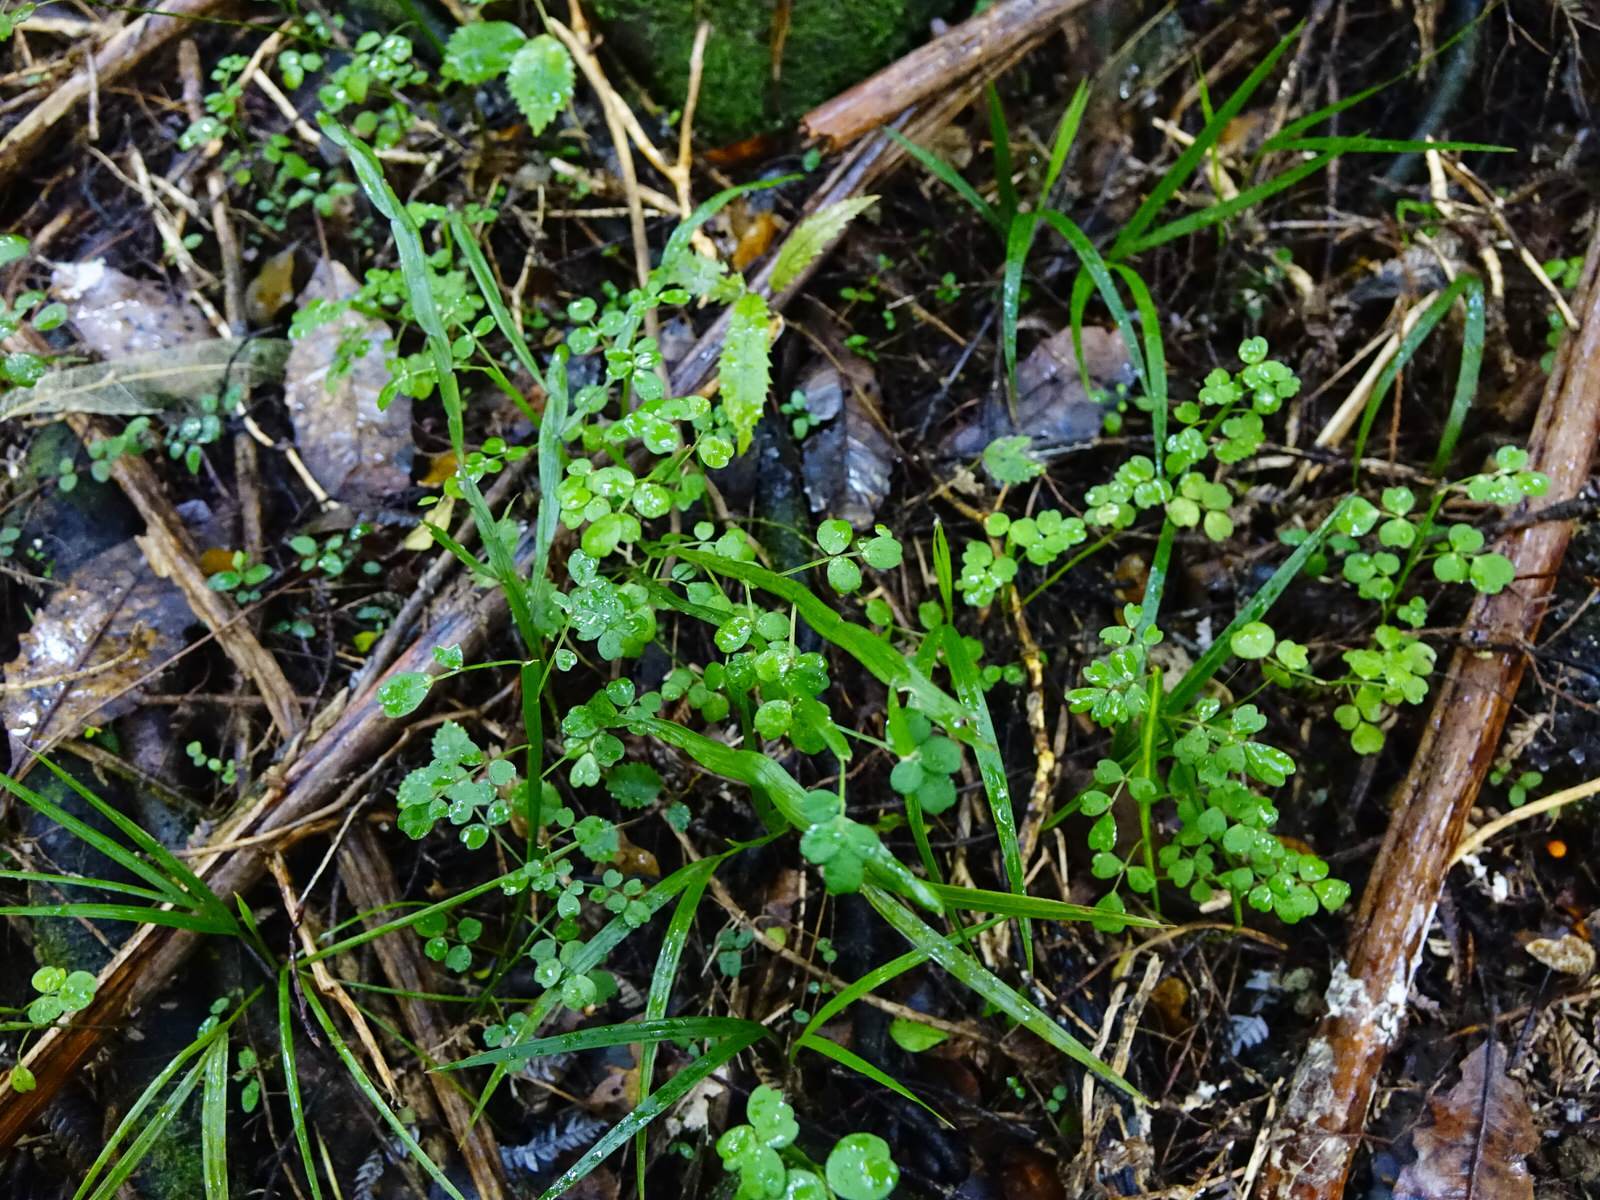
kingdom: Plantae
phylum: Tracheophyta
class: Magnoliopsida
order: Fabales
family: Fabaceae
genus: Carmichaelia
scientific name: Carmichaelia australis
